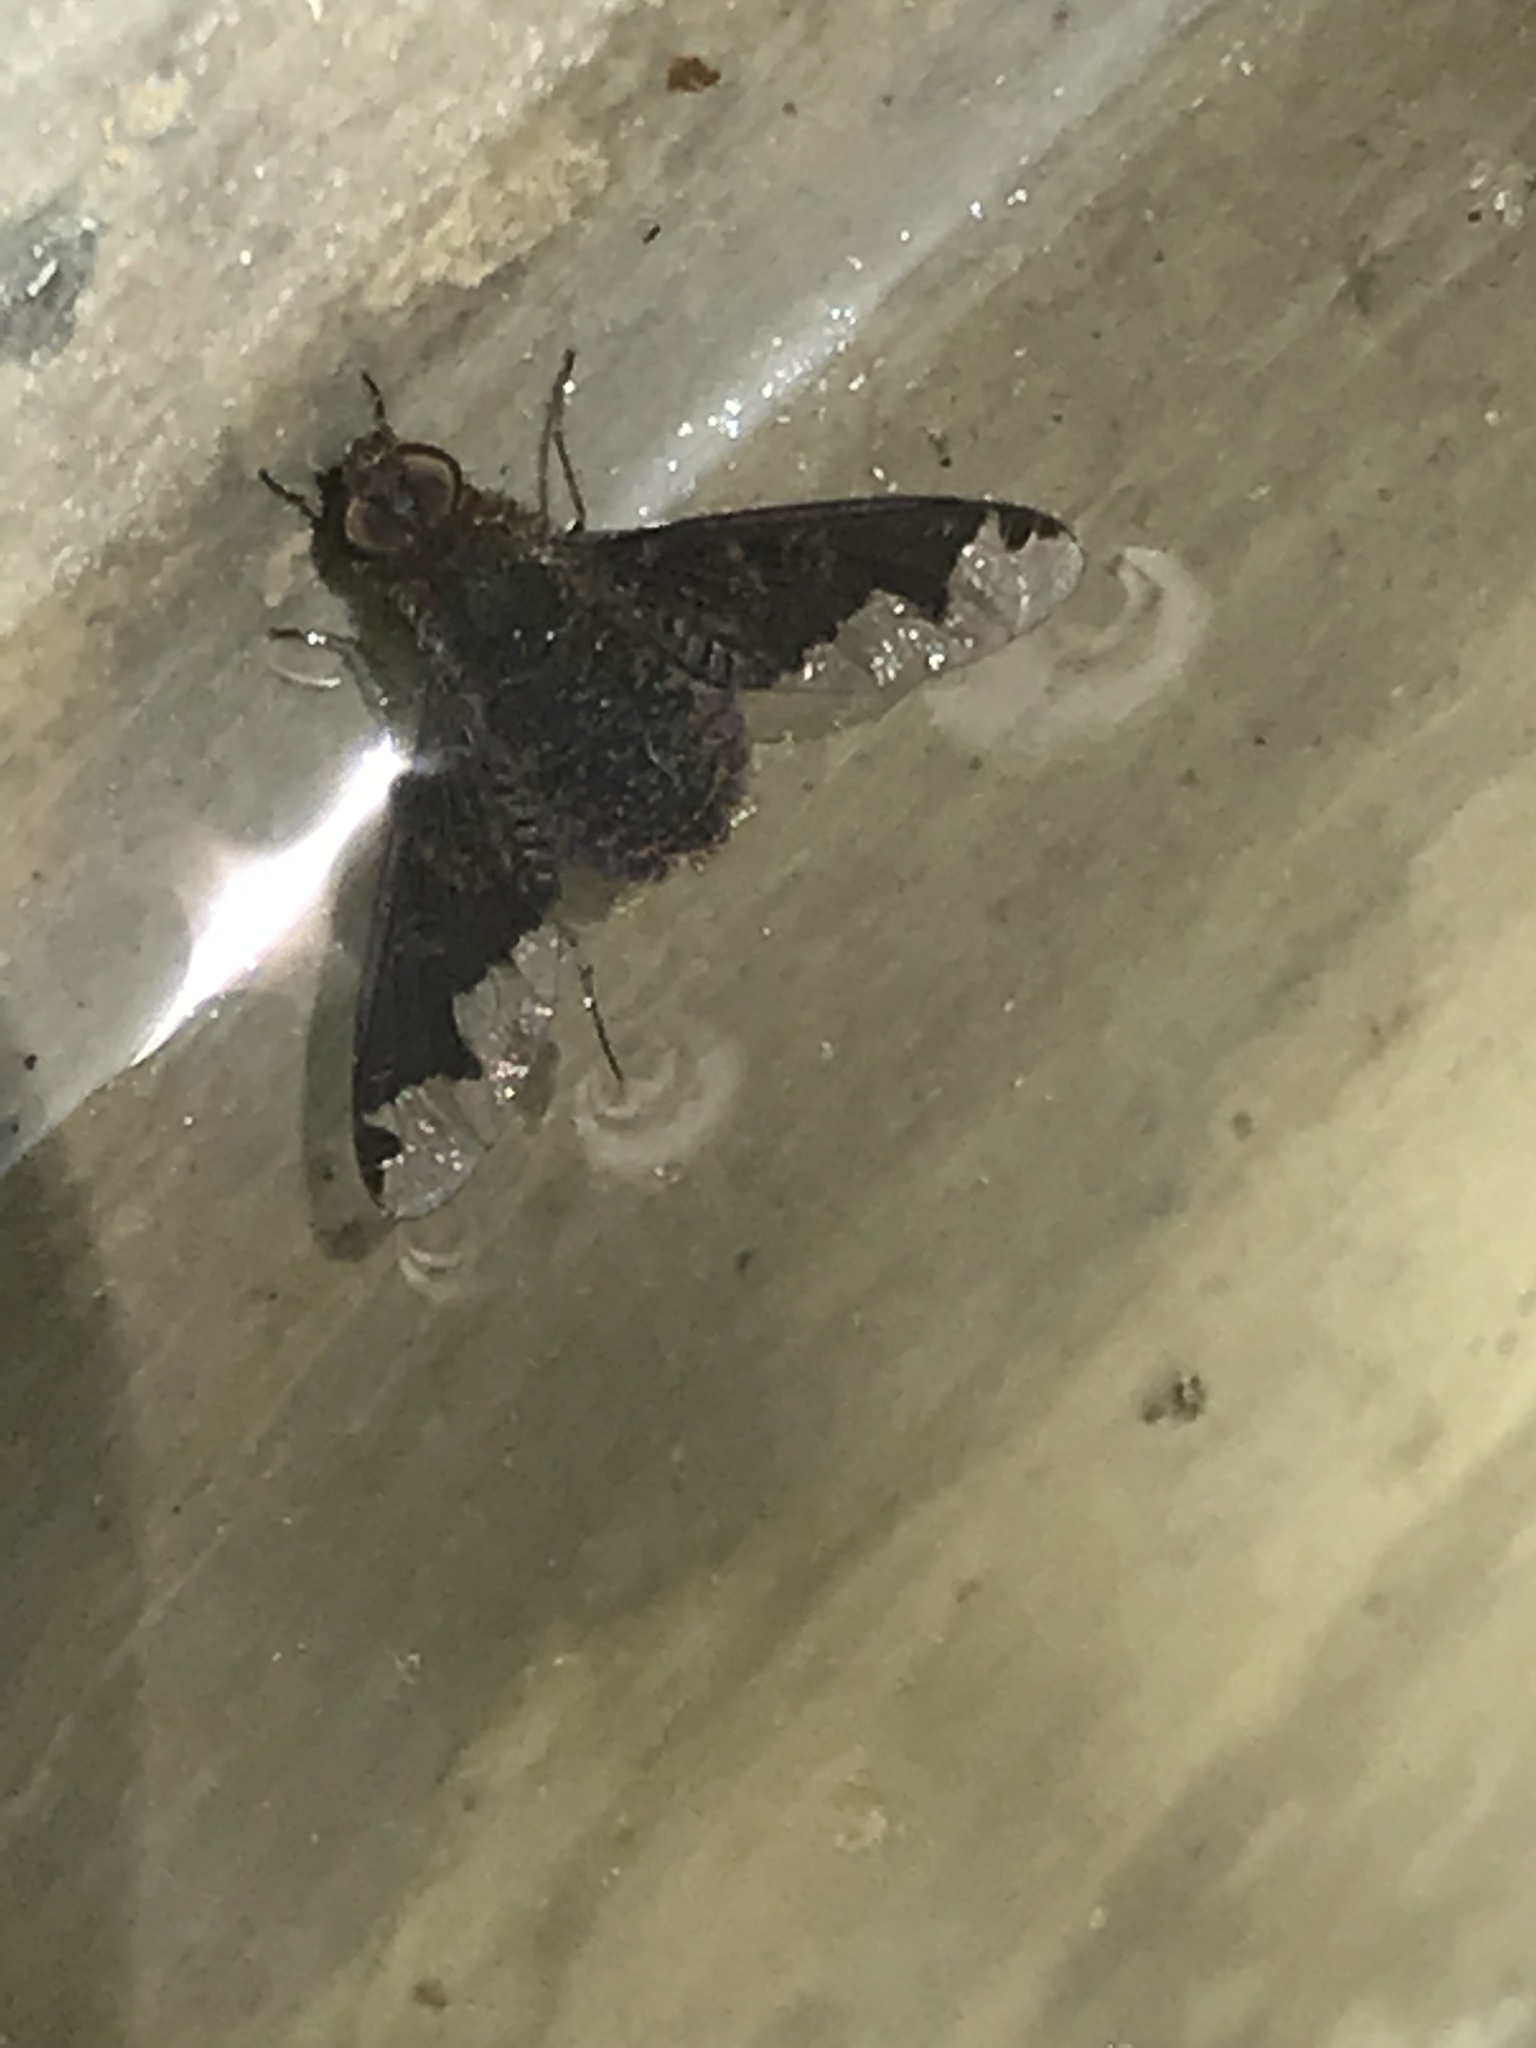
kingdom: Animalia
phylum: Arthropoda
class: Insecta
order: Diptera
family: Bombyliidae
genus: Hemipenthes
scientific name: Hemipenthes sinuosus
